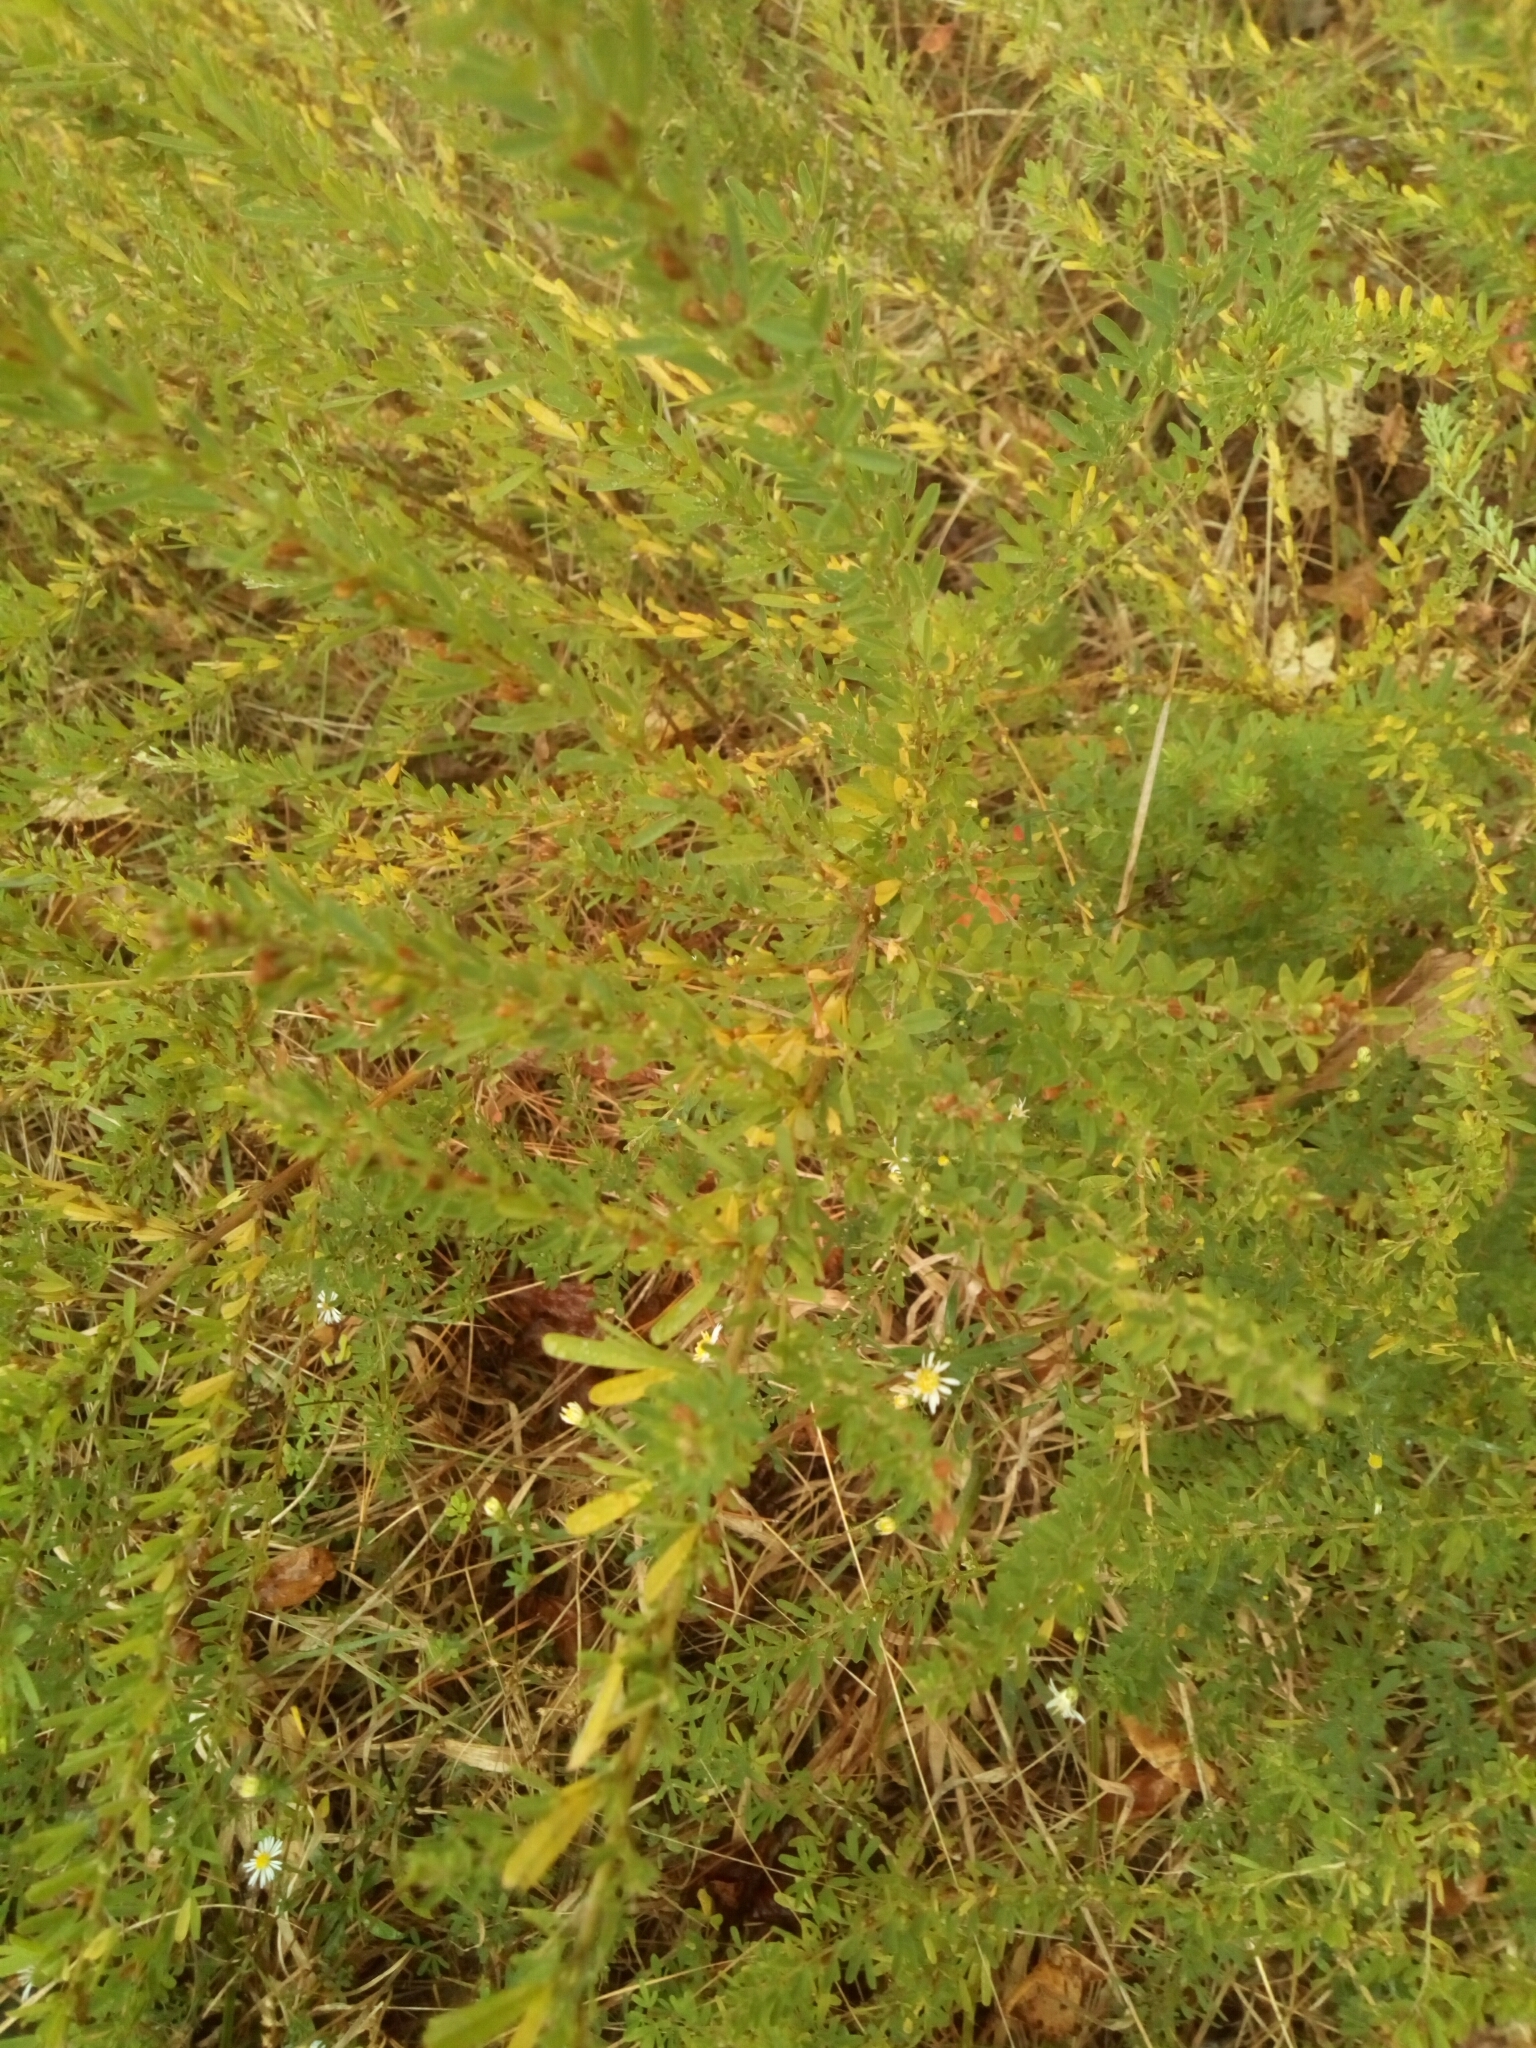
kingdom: Plantae
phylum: Tracheophyta
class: Magnoliopsida
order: Fabales
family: Fabaceae
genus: Lespedeza
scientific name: Lespedeza cuneata
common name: Chinese bush-clover
